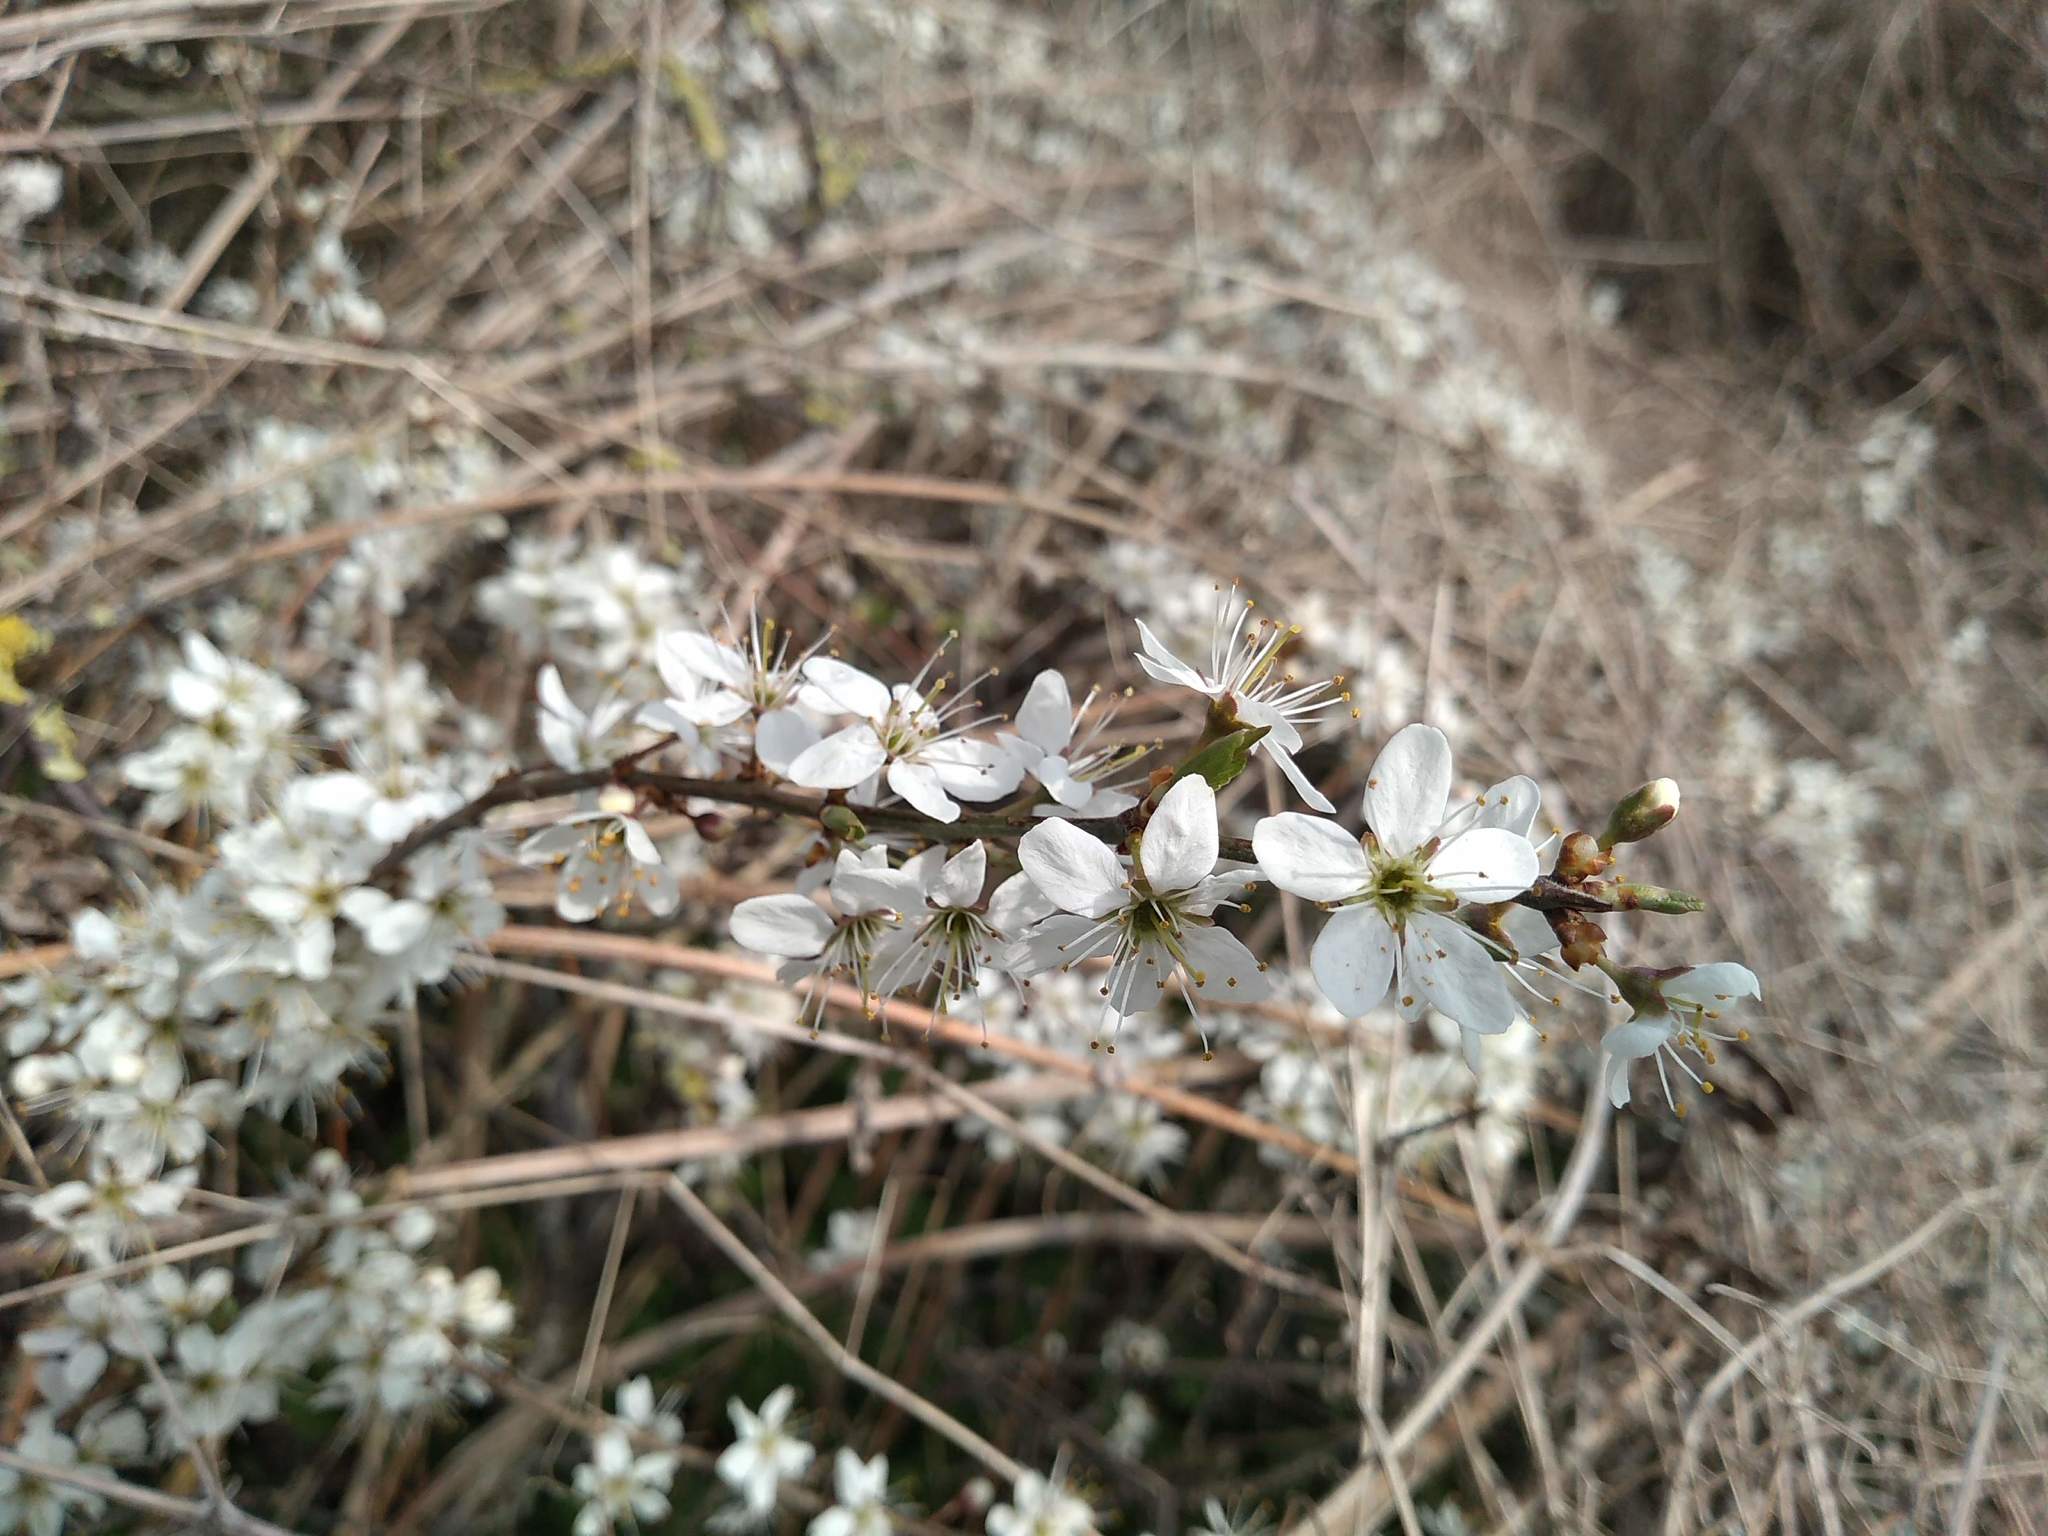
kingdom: Plantae
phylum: Tracheophyta
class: Magnoliopsida
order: Rosales
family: Rosaceae
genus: Prunus
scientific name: Prunus spinosa
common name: Blackthorn
